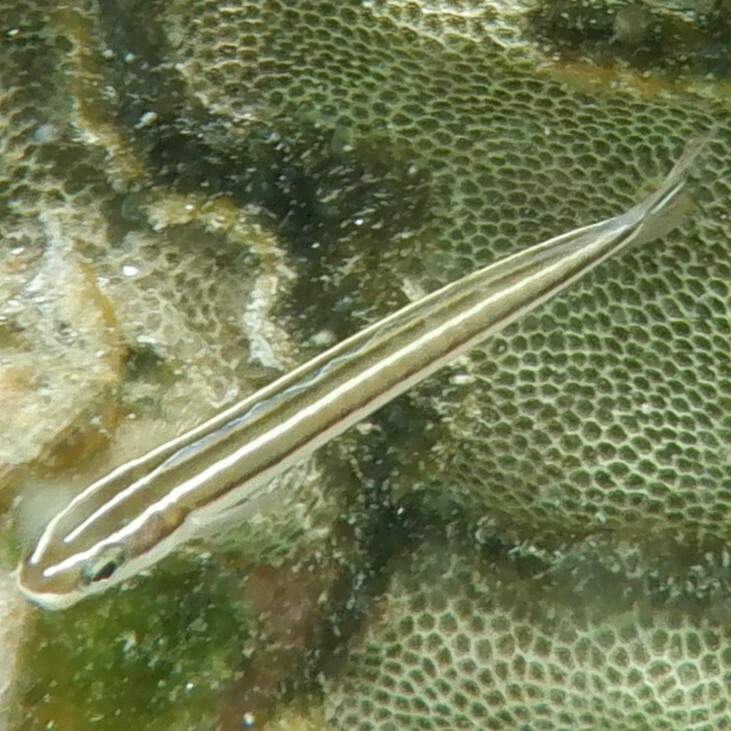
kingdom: Animalia
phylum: Chordata
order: Perciformes
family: Blenniidae
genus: Plagiotremus
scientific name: Plagiotremus goslinei
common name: Biting blenny
